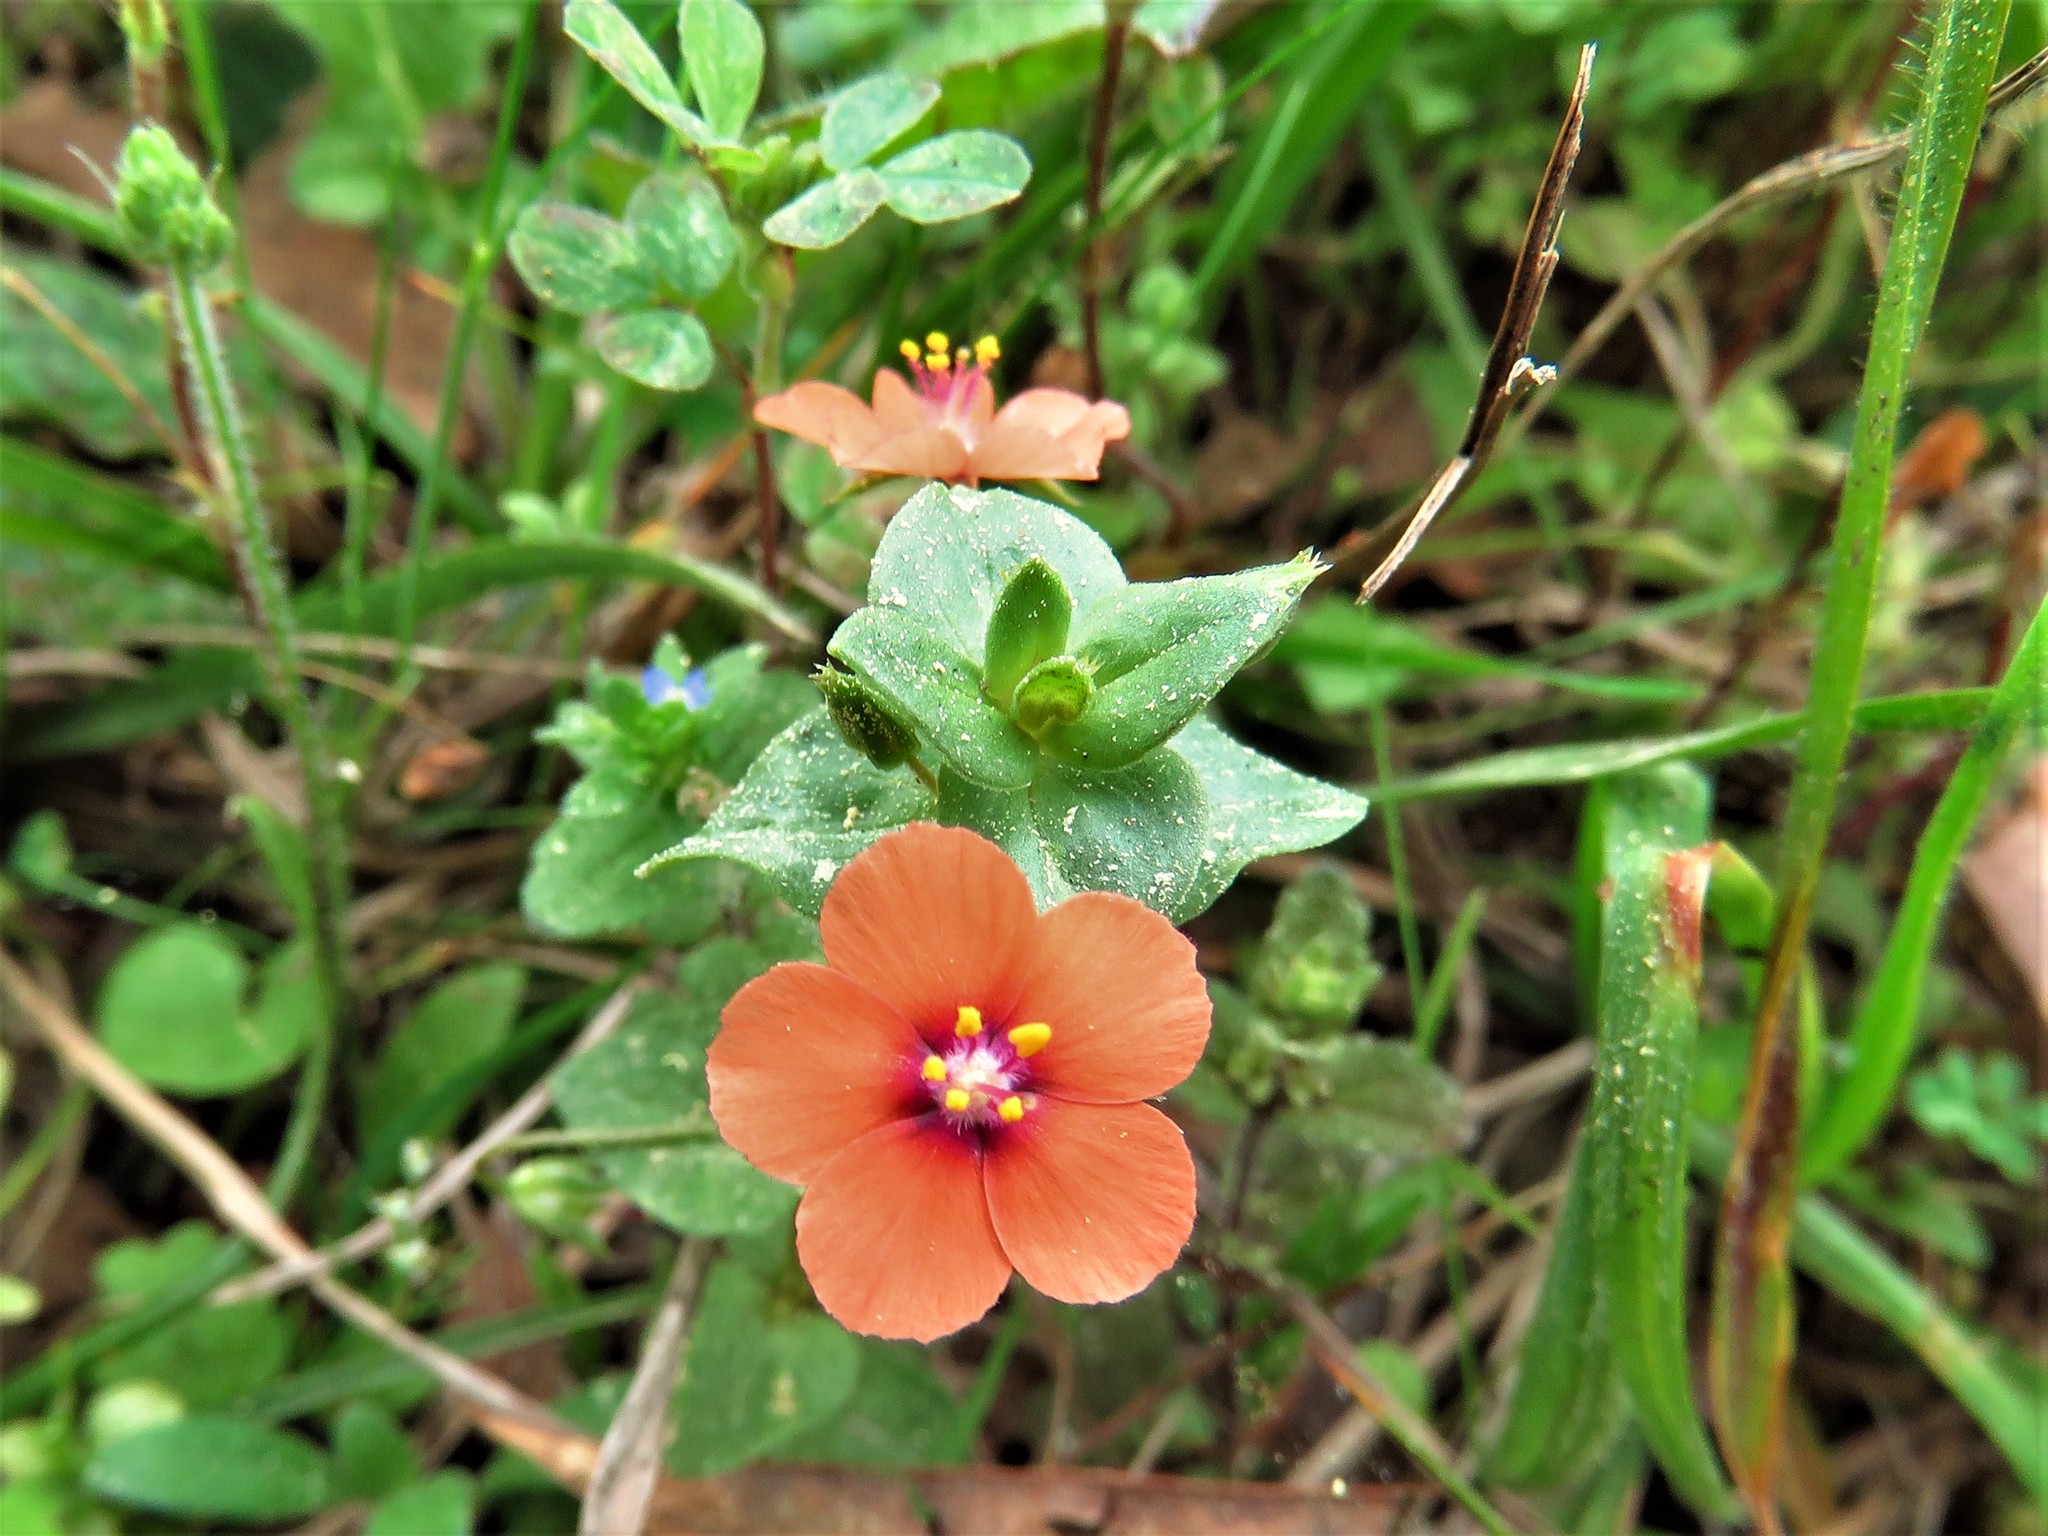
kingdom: Plantae
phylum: Tracheophyta
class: Magnoliopsida
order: Ericales
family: Primulaceae
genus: Lysimachia
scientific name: Lysimachia arvensis
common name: Scarlet pimpernel
